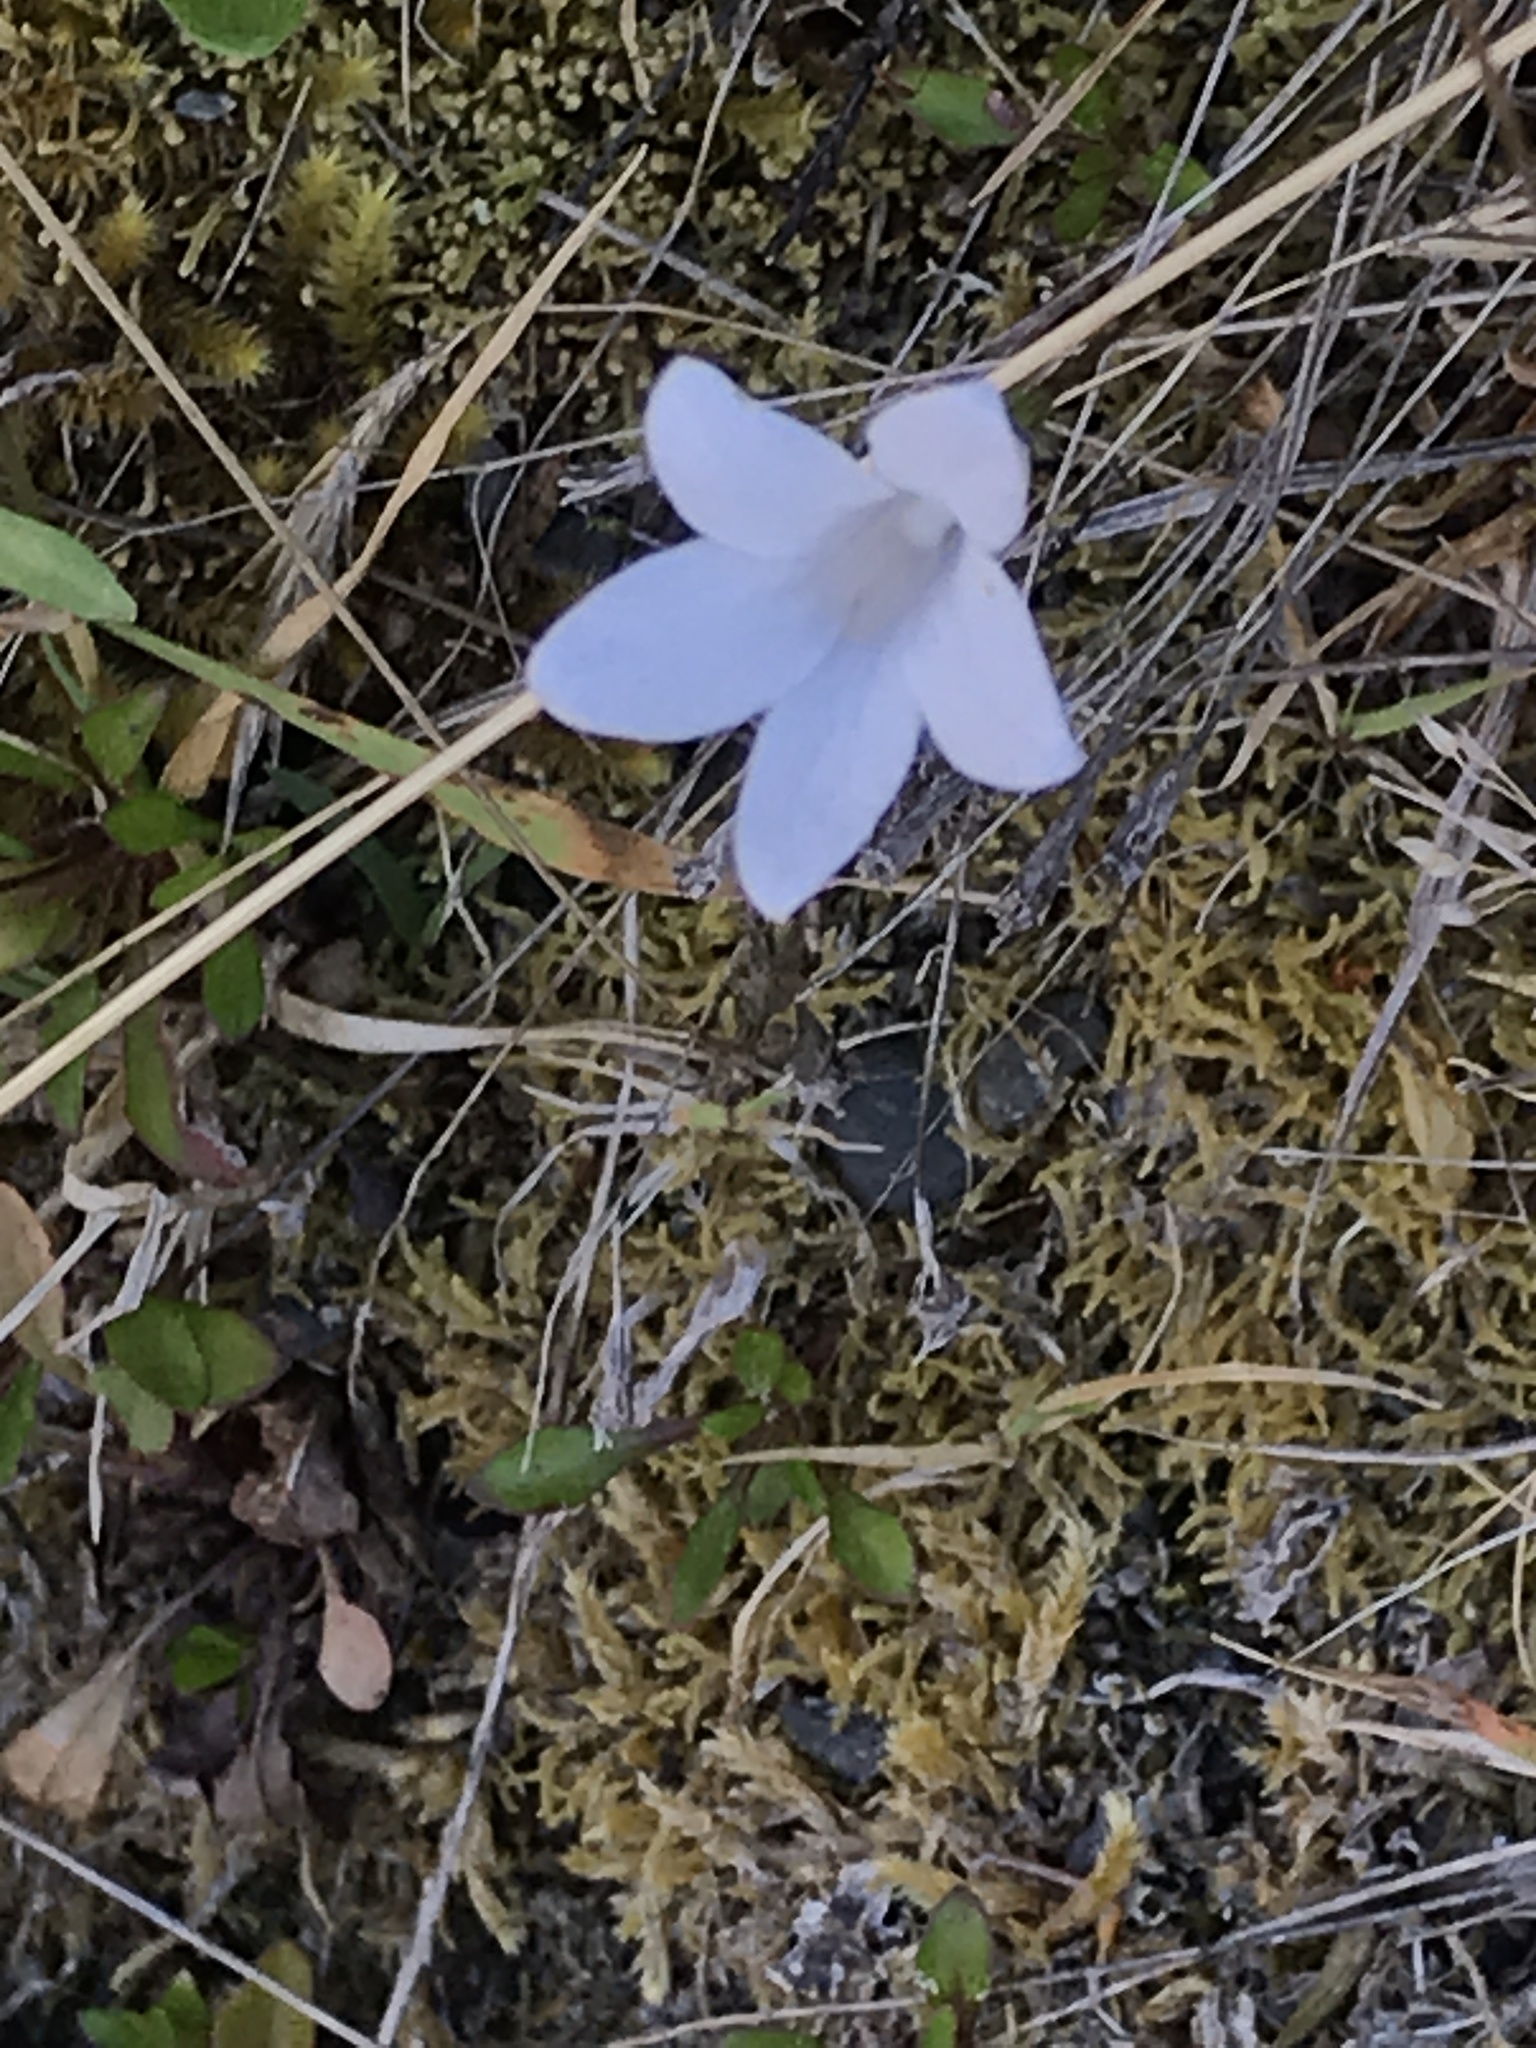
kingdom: Plantae
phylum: Tracheophyta
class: Magnoliopsida
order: Asterales
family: Campanulaceae
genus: Wahlenbergia
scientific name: Wahlenbergia albomarginata
